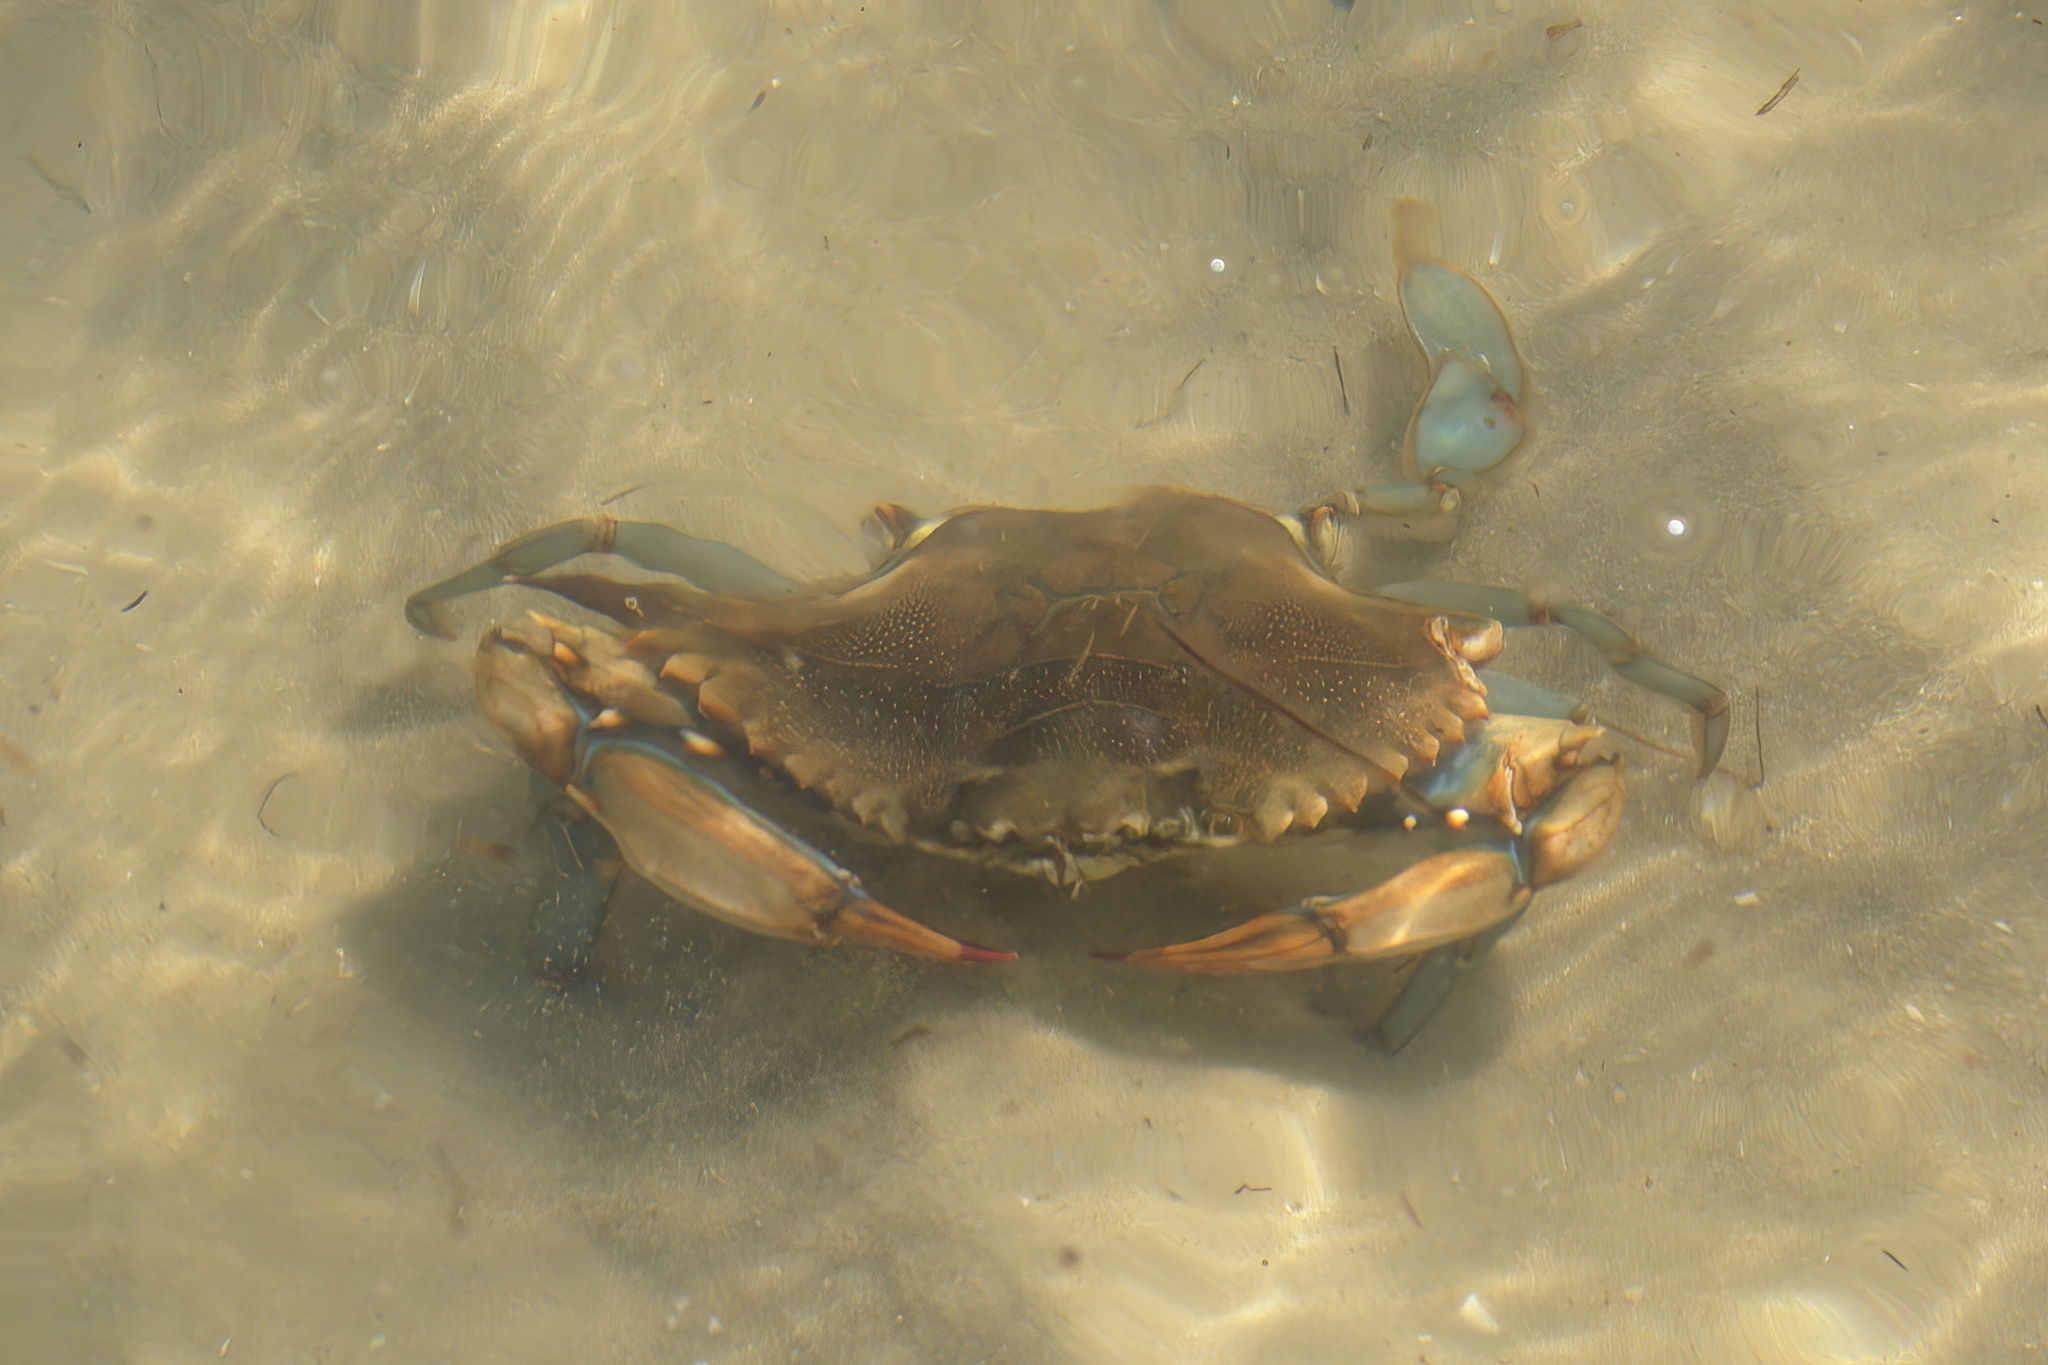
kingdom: Animalia
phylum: Arthropoda
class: Malacostraca
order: Decapoda
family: Portunidae
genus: Callinectes
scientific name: Callinectes sapidus
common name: Blue crab
